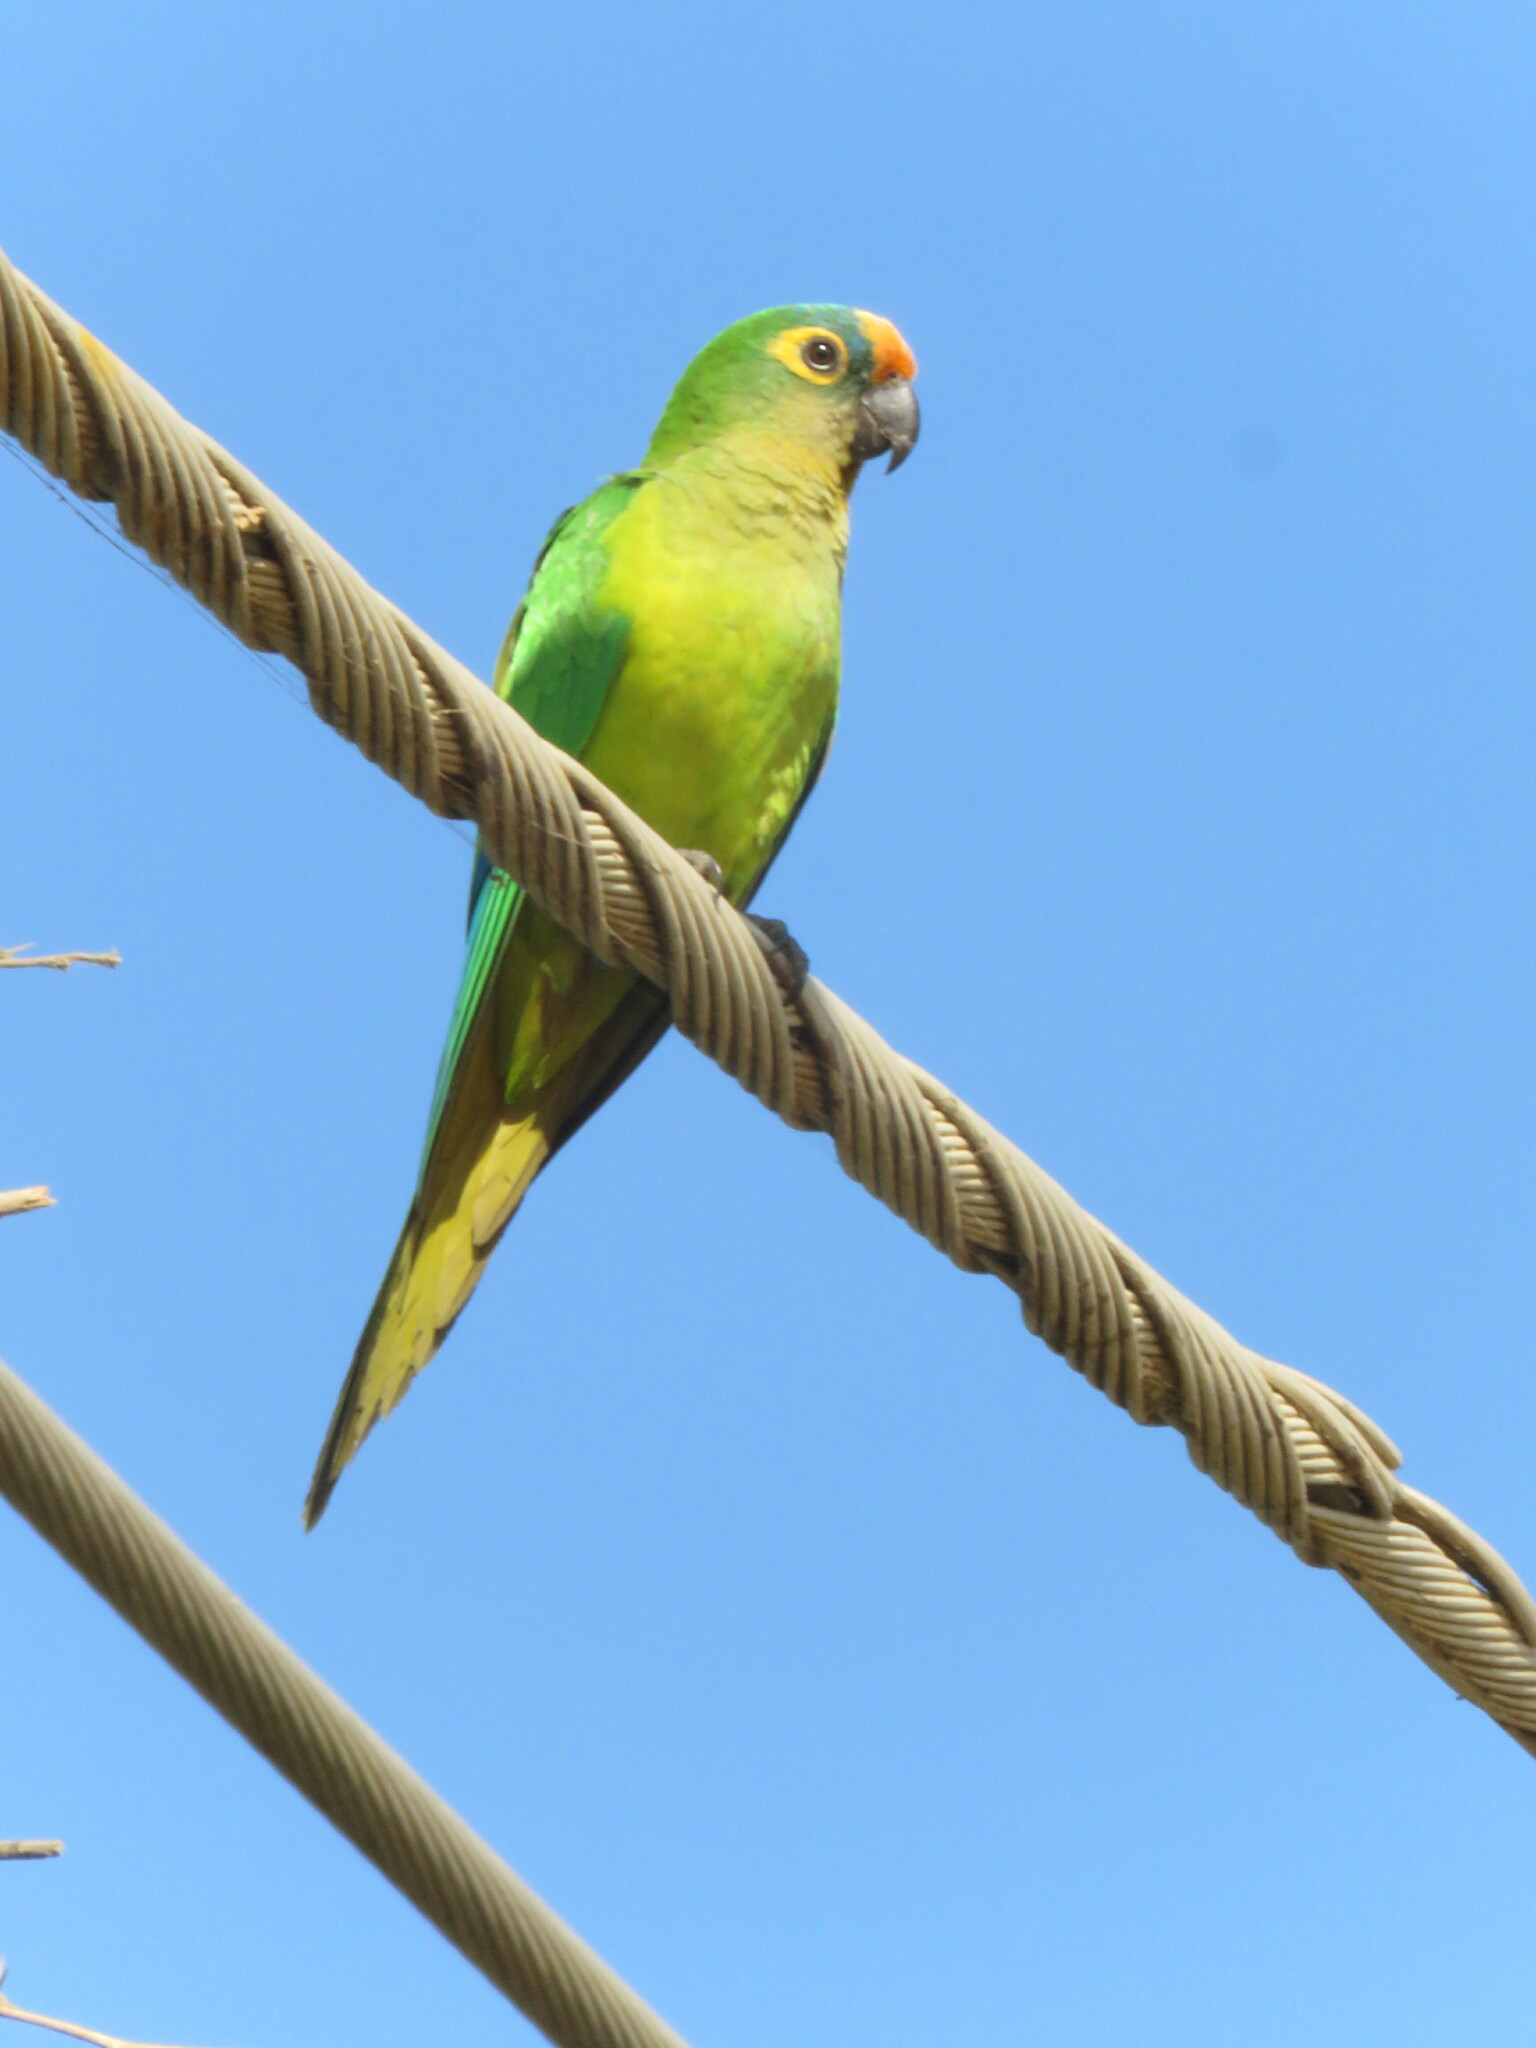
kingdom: Animalia
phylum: Chordata
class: Aves
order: Psittaciformes
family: Psittacidae
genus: Aratinga
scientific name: Aratinga aurea
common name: Peach-fronted parakeet
